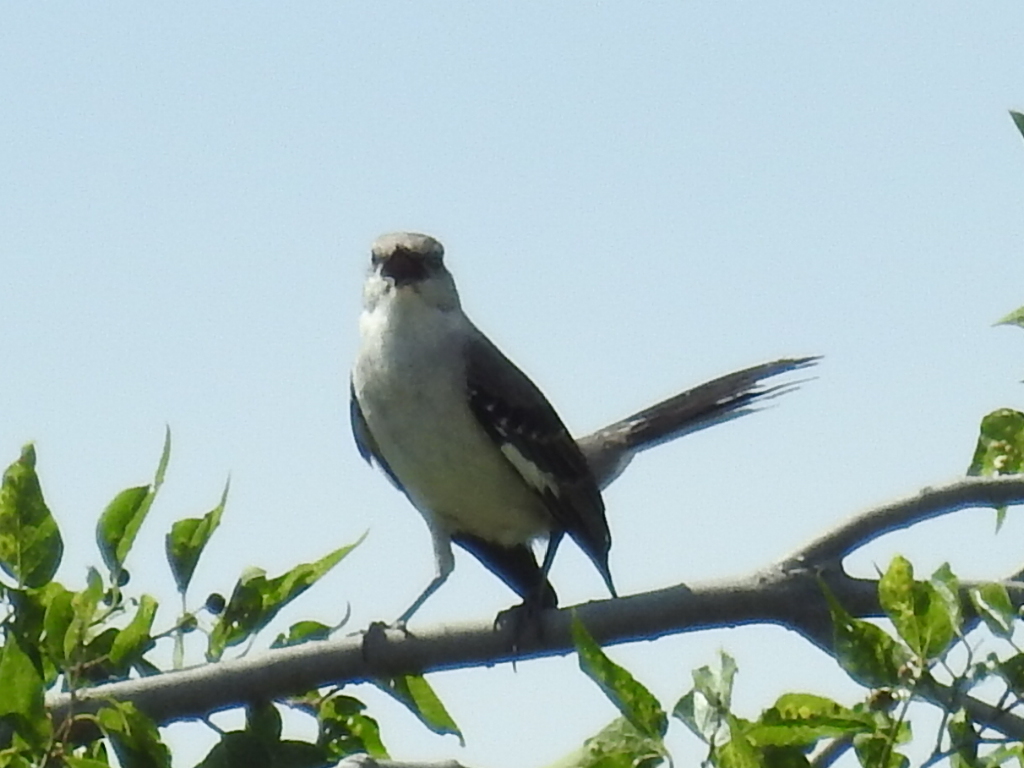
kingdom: Animalia
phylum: Chordata
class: Aves
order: Passeriformes
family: Mimidae
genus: Mimus
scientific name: Mimus polyglottos
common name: Northern mockingbird
